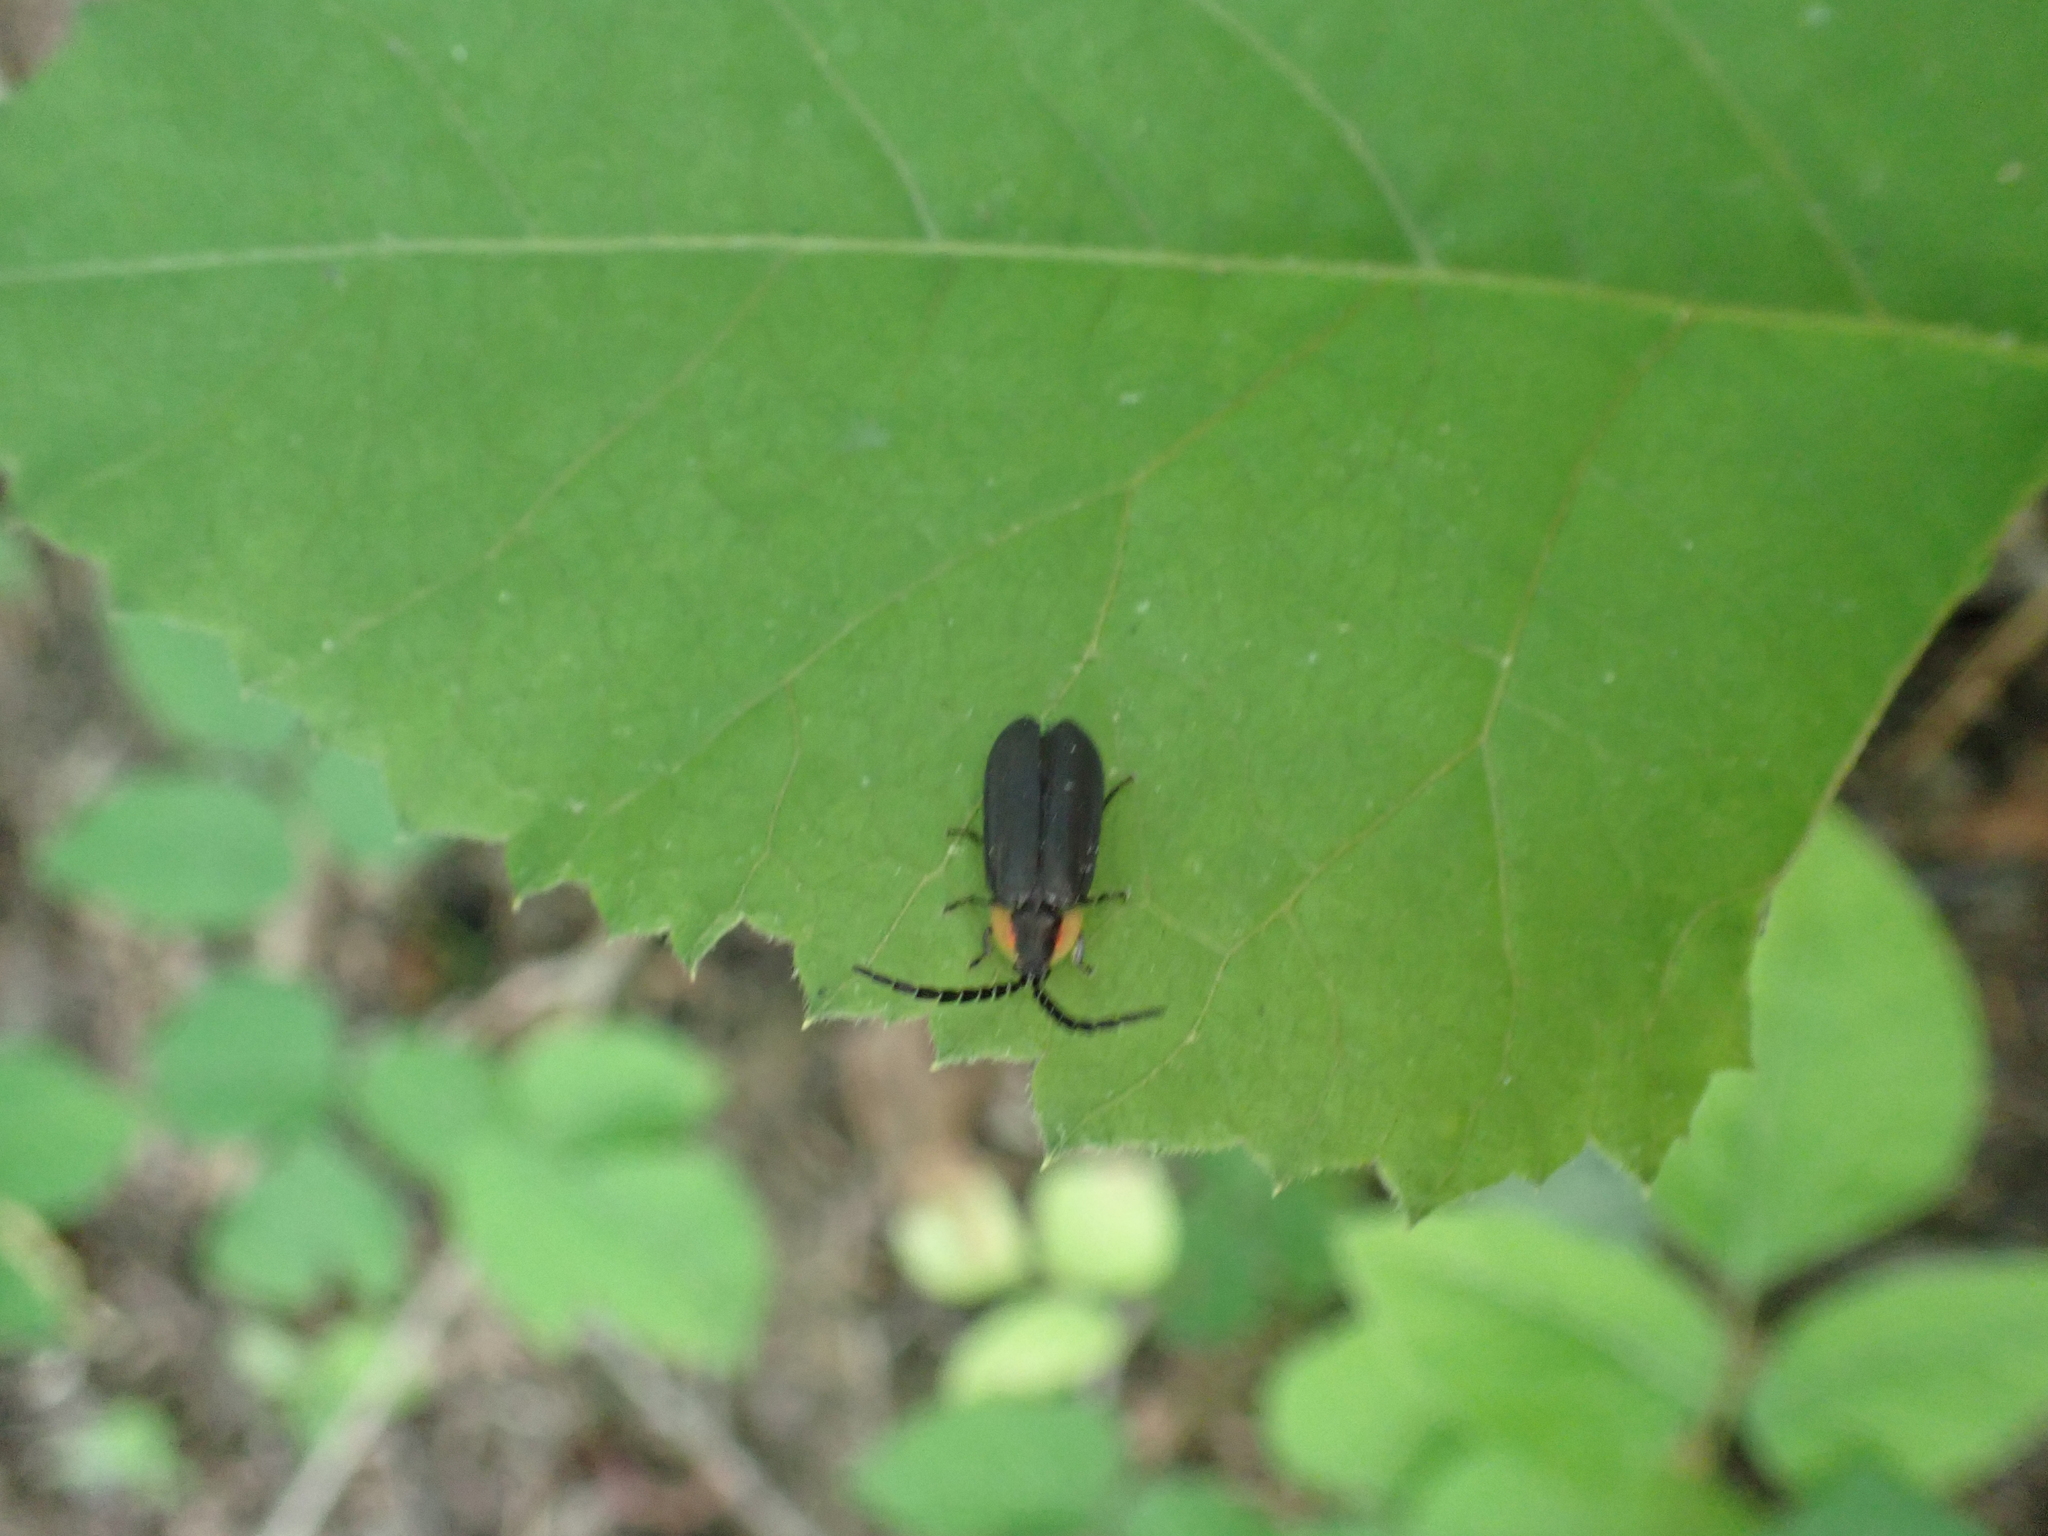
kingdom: Animalia
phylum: Arthropoda
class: Insecta
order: Coleoptera
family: Lampyridae
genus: Lucidota
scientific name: Lucidota atra
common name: Black firefly
